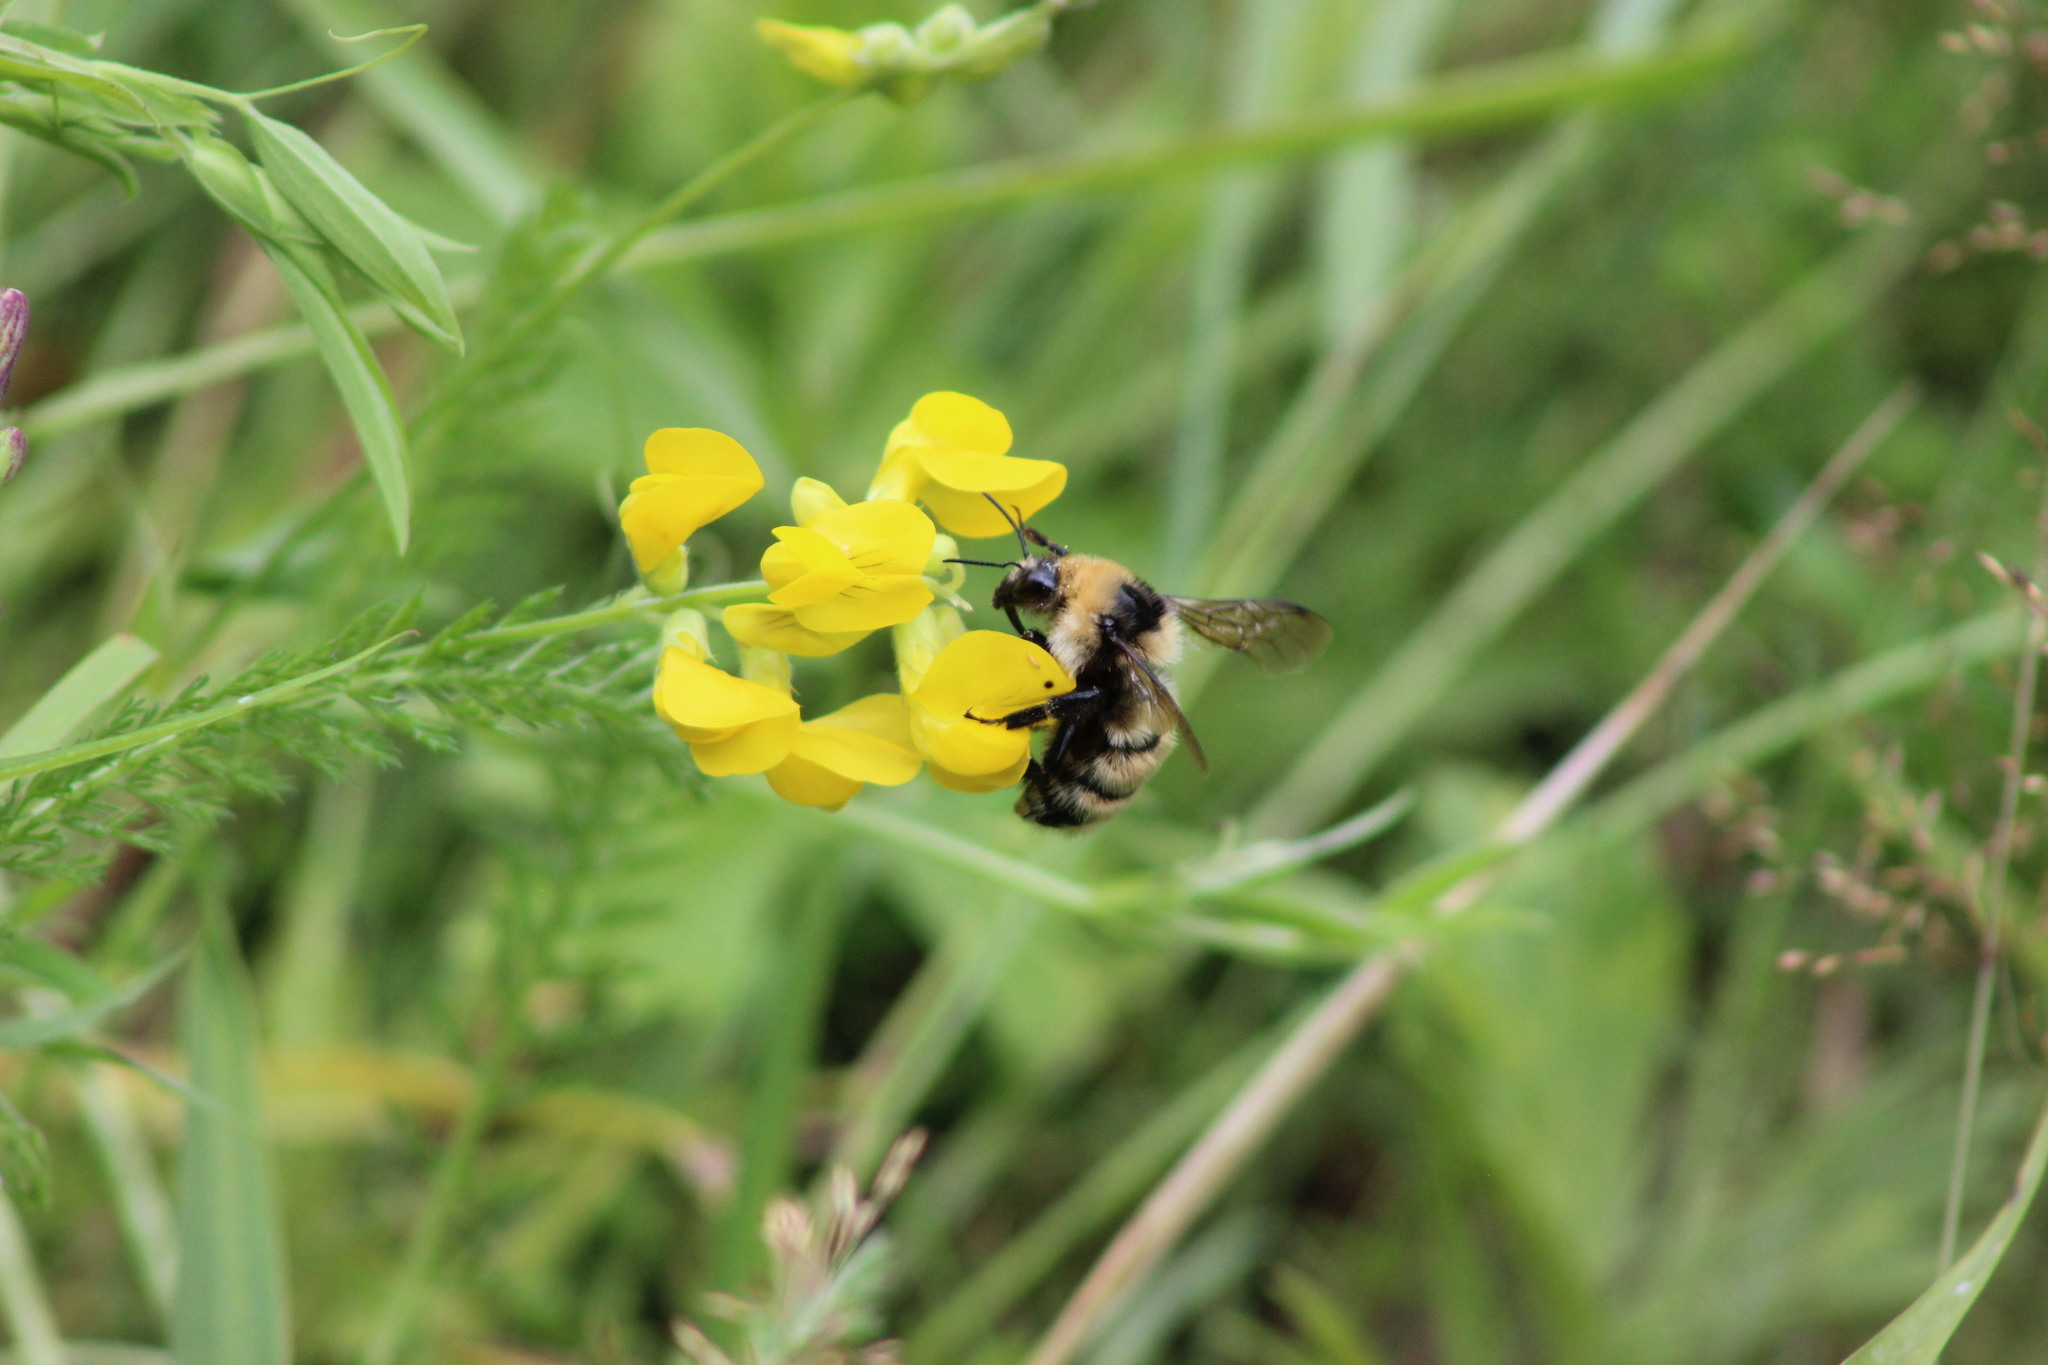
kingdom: Animalia
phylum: Arthropoda
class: Insecta
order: Hymenoptera
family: Apidae
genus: Bombus
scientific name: Bombus distinguendus
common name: Great yellow humble-bee
